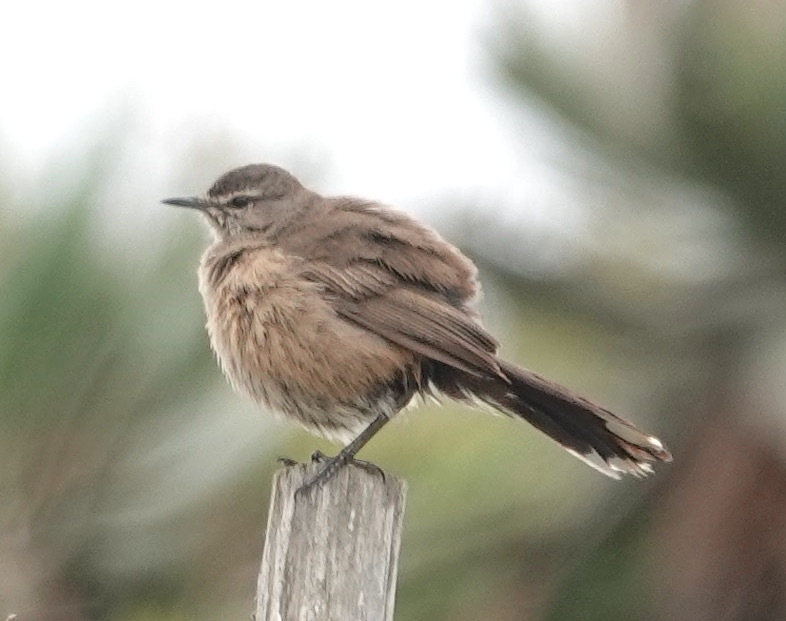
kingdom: Animalia
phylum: Chordata
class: Aves
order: Passeriformes
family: Muscicapidae
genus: Erythropygia
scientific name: Erythropygia coryphoeus
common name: Karoo scrub robin
